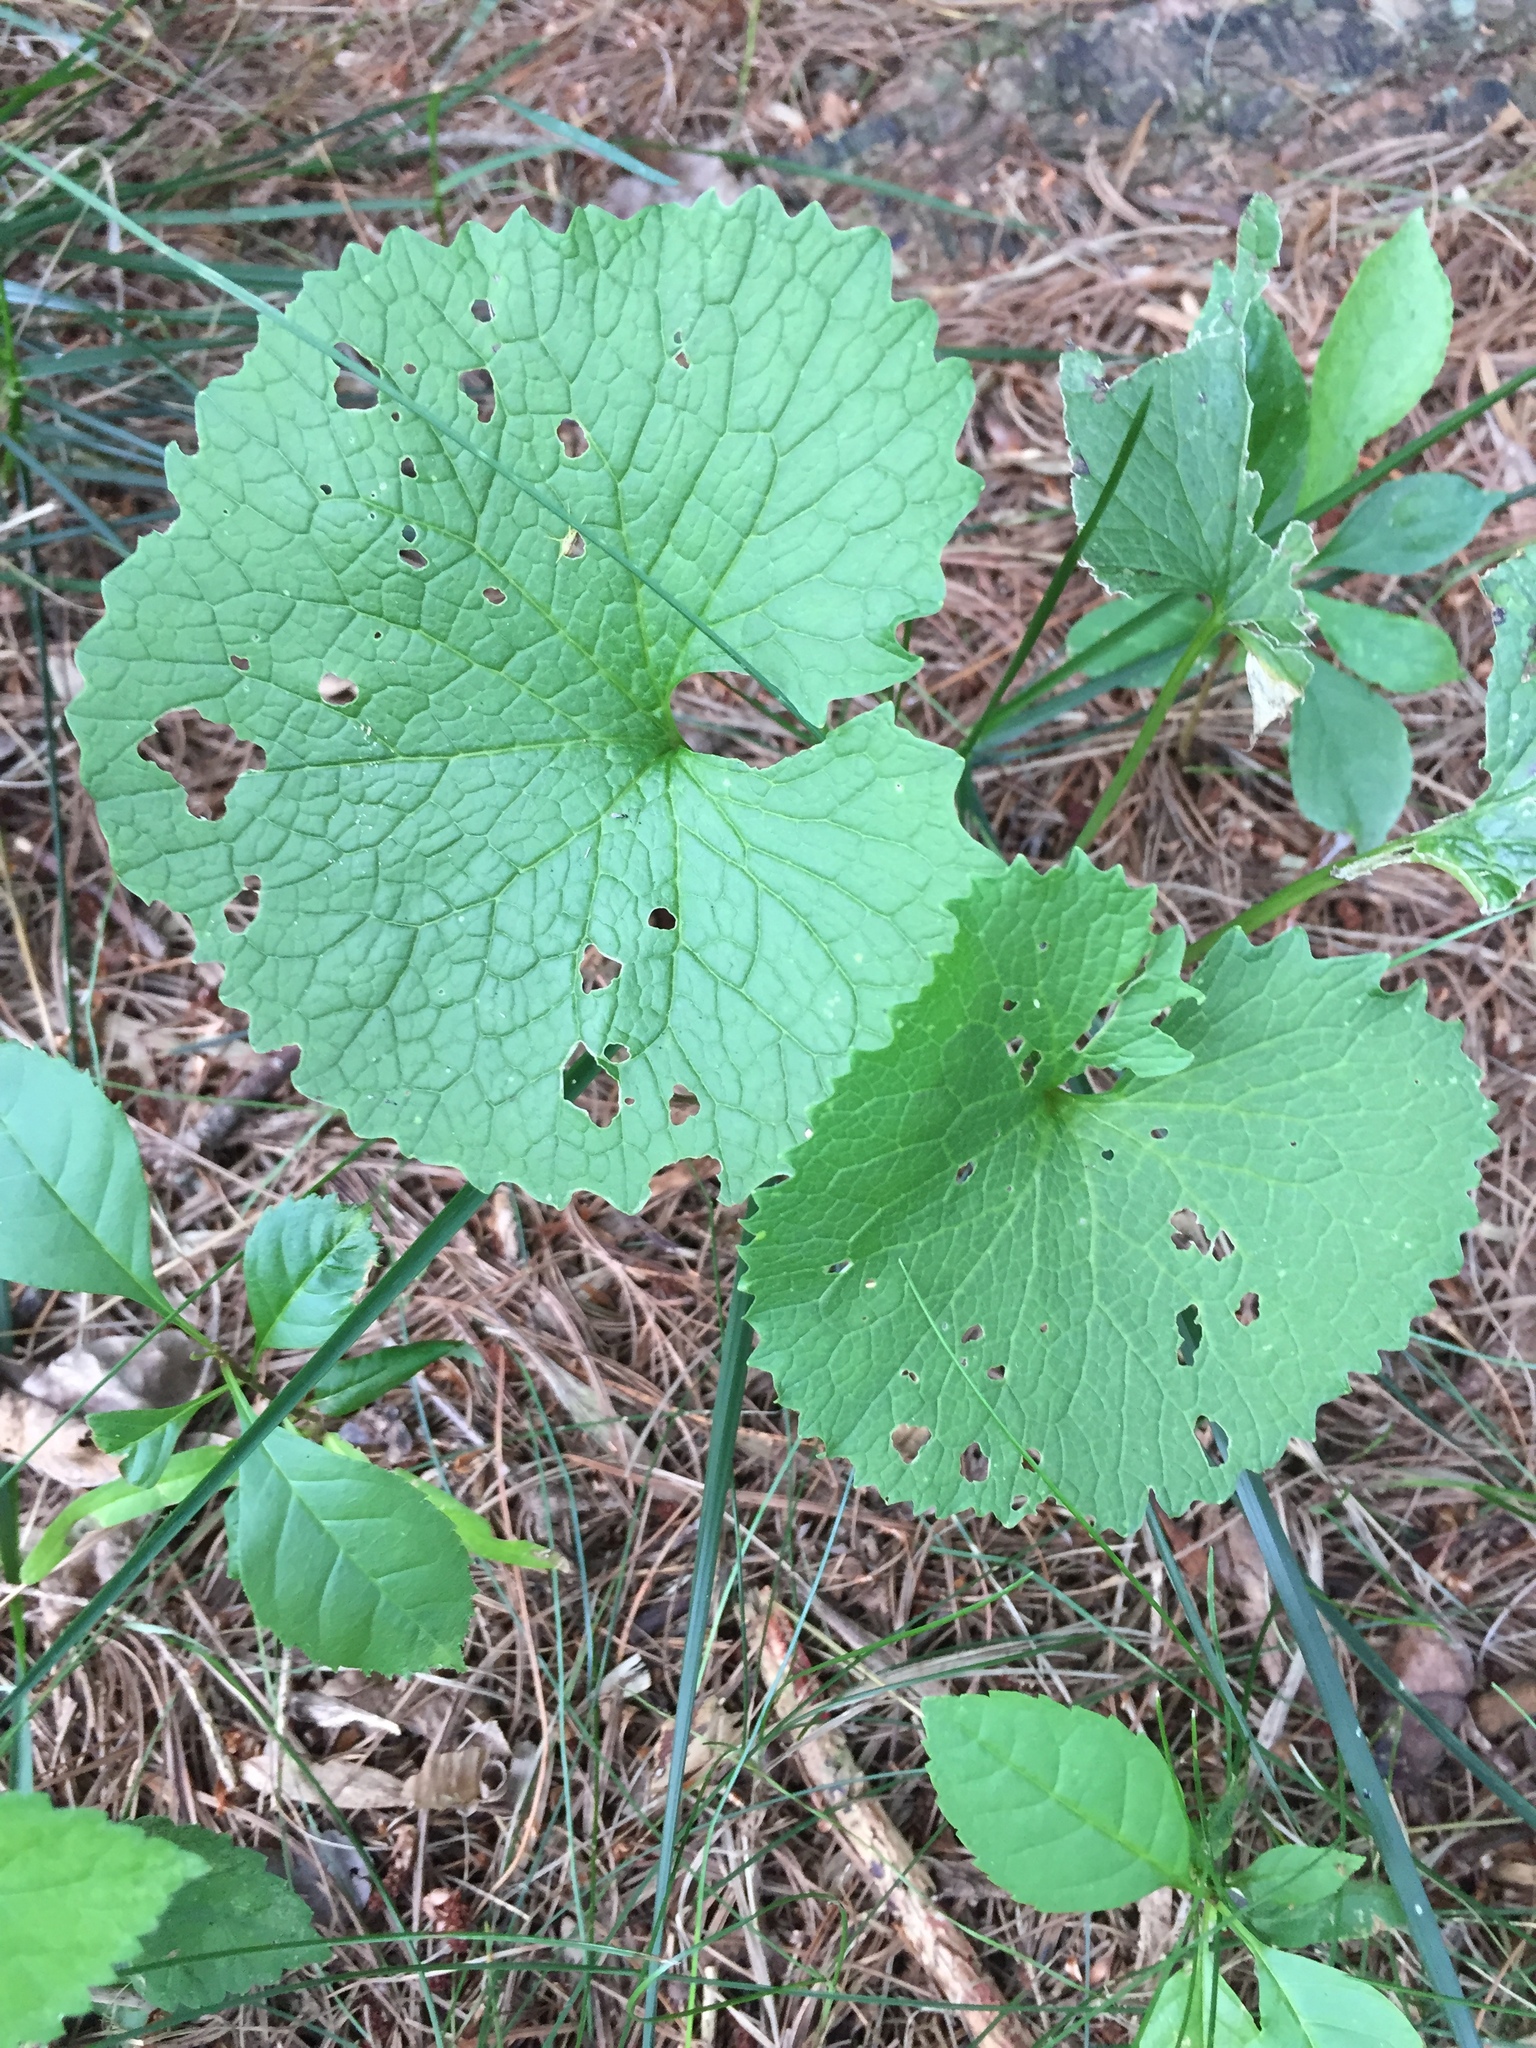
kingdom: Plantae
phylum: Tracheophyta
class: Magnoliopsida
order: Brassicales
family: Brassicaceae
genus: Alliaria
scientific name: Alliaria petiolata
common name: Garlic mustard
